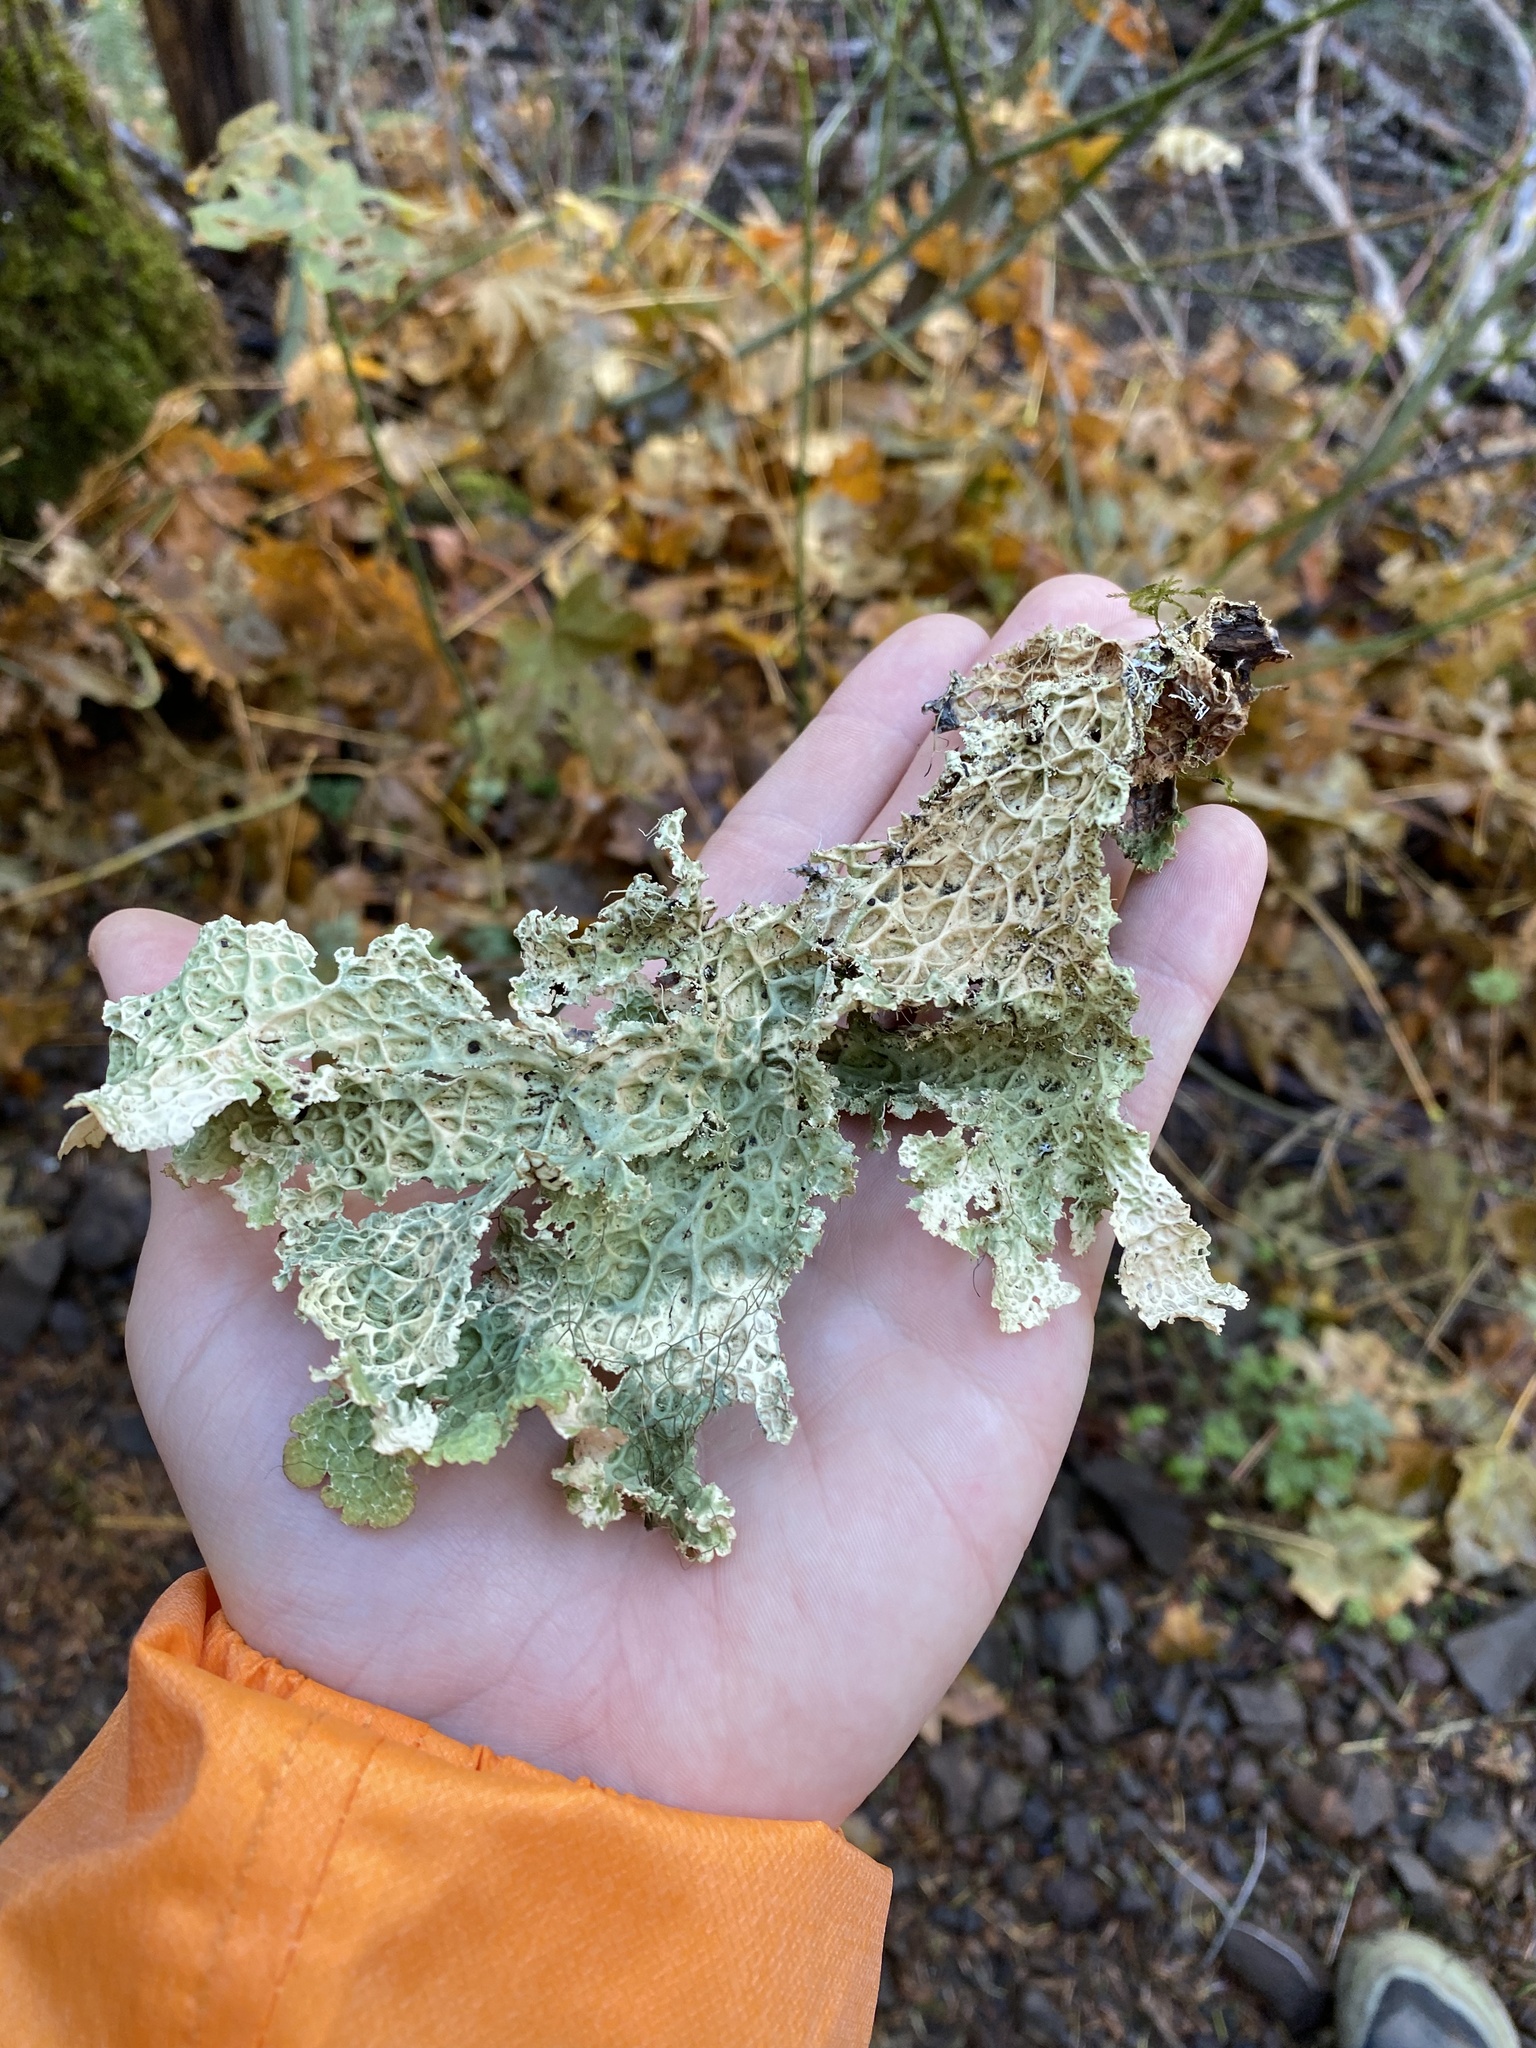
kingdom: Fungi
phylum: Ascomycota
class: Lecanoromycetes
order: Peltigerales
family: Lobariaceae
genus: Lobaria
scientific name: Lobaria oregana
